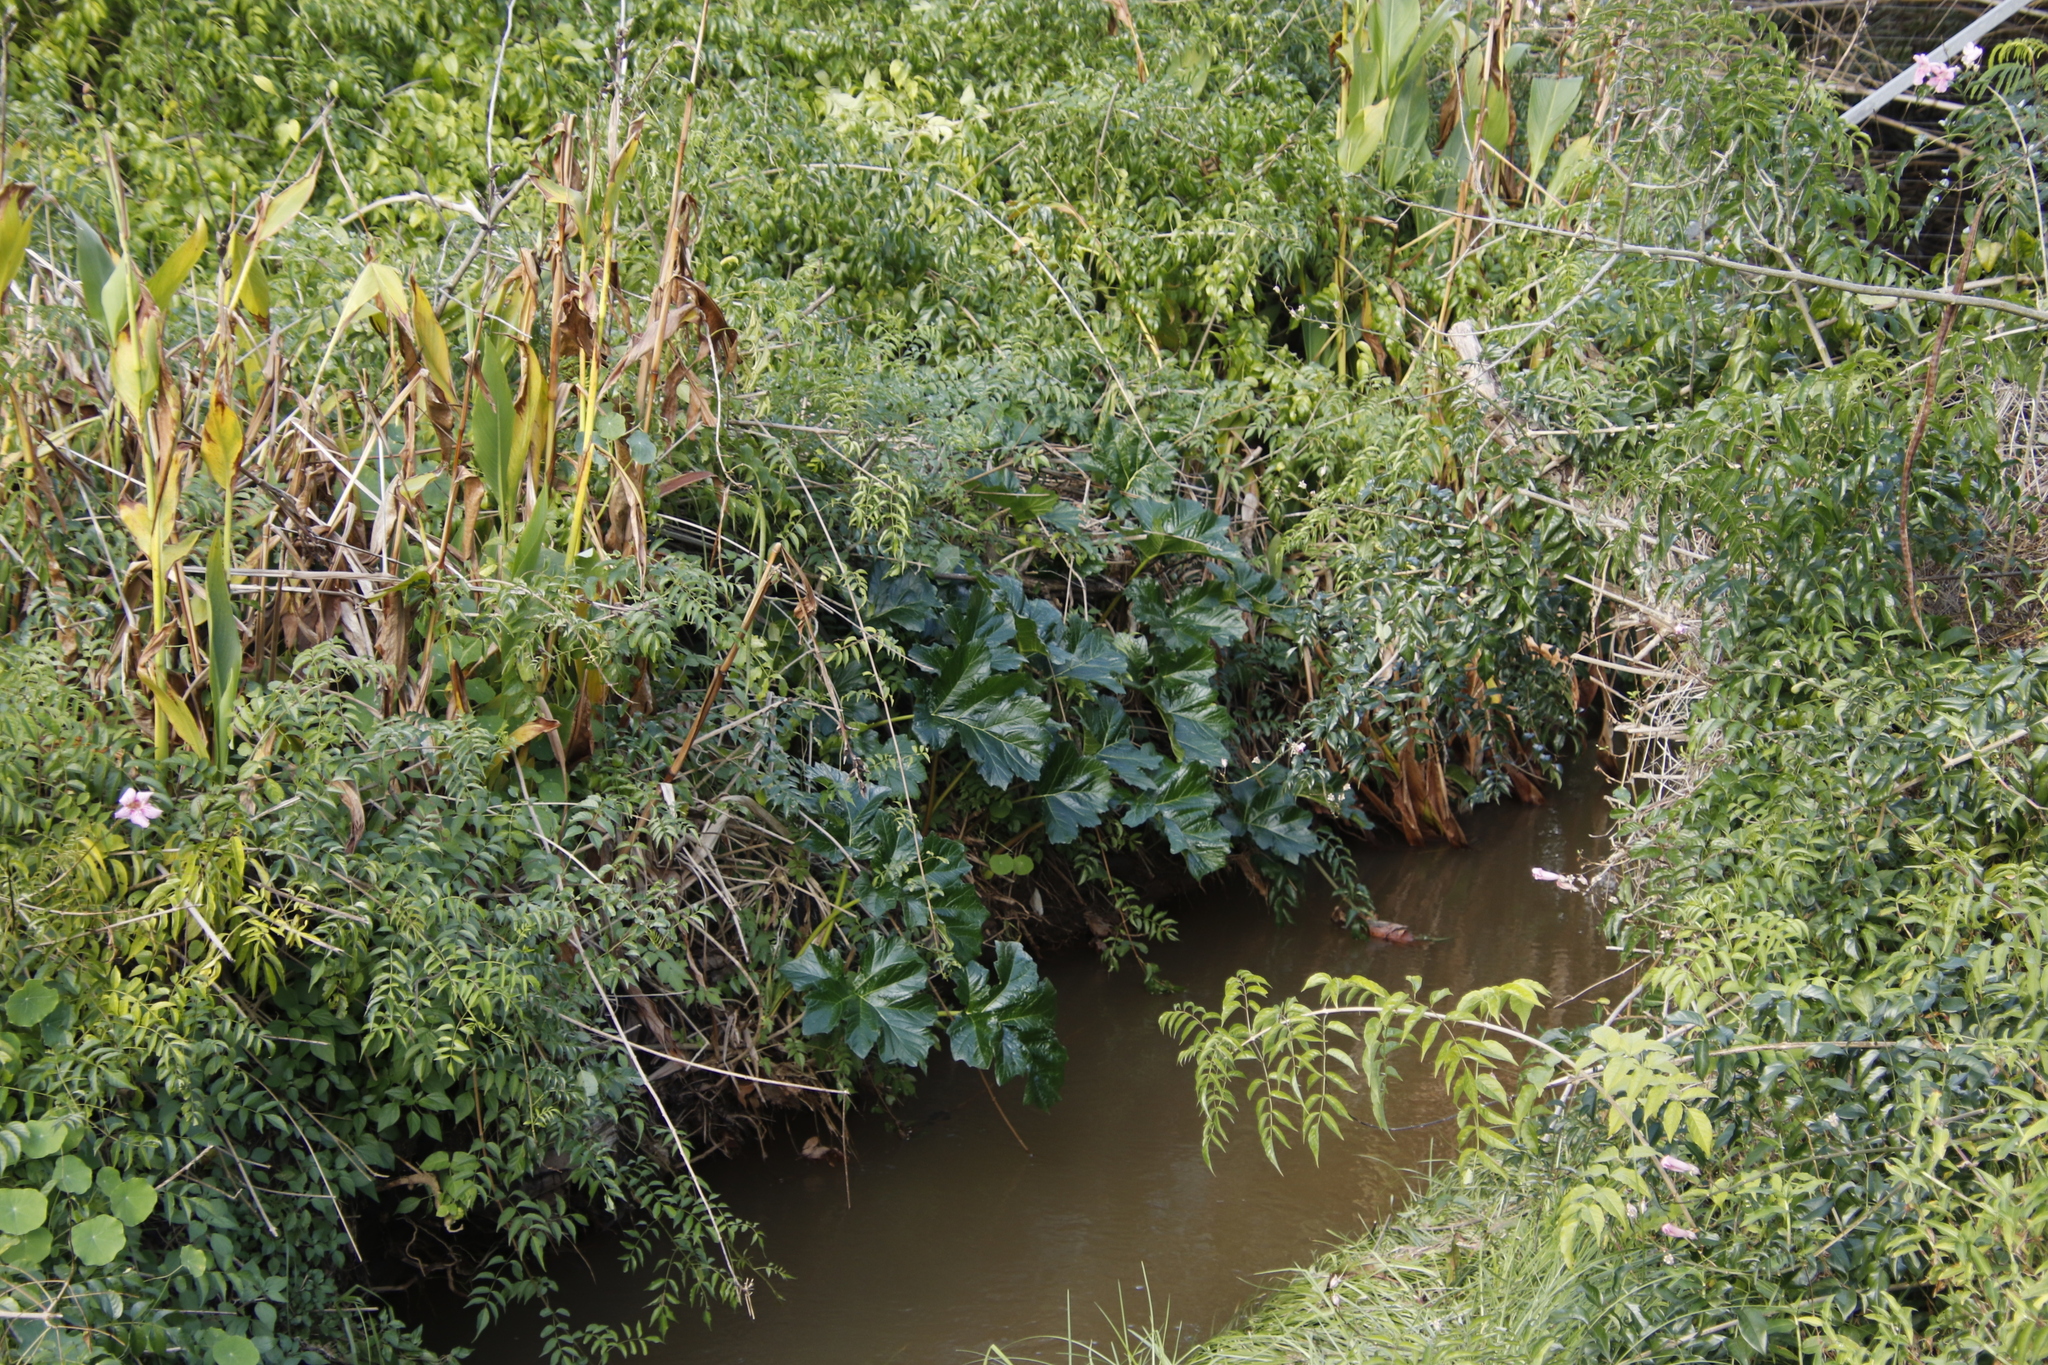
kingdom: Plantae
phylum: Tracheophyta
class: Magnoliopsida
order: Lamiales
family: Acanthaceae
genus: Acanthus
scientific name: Acanthus mollis
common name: Bear's-breech
